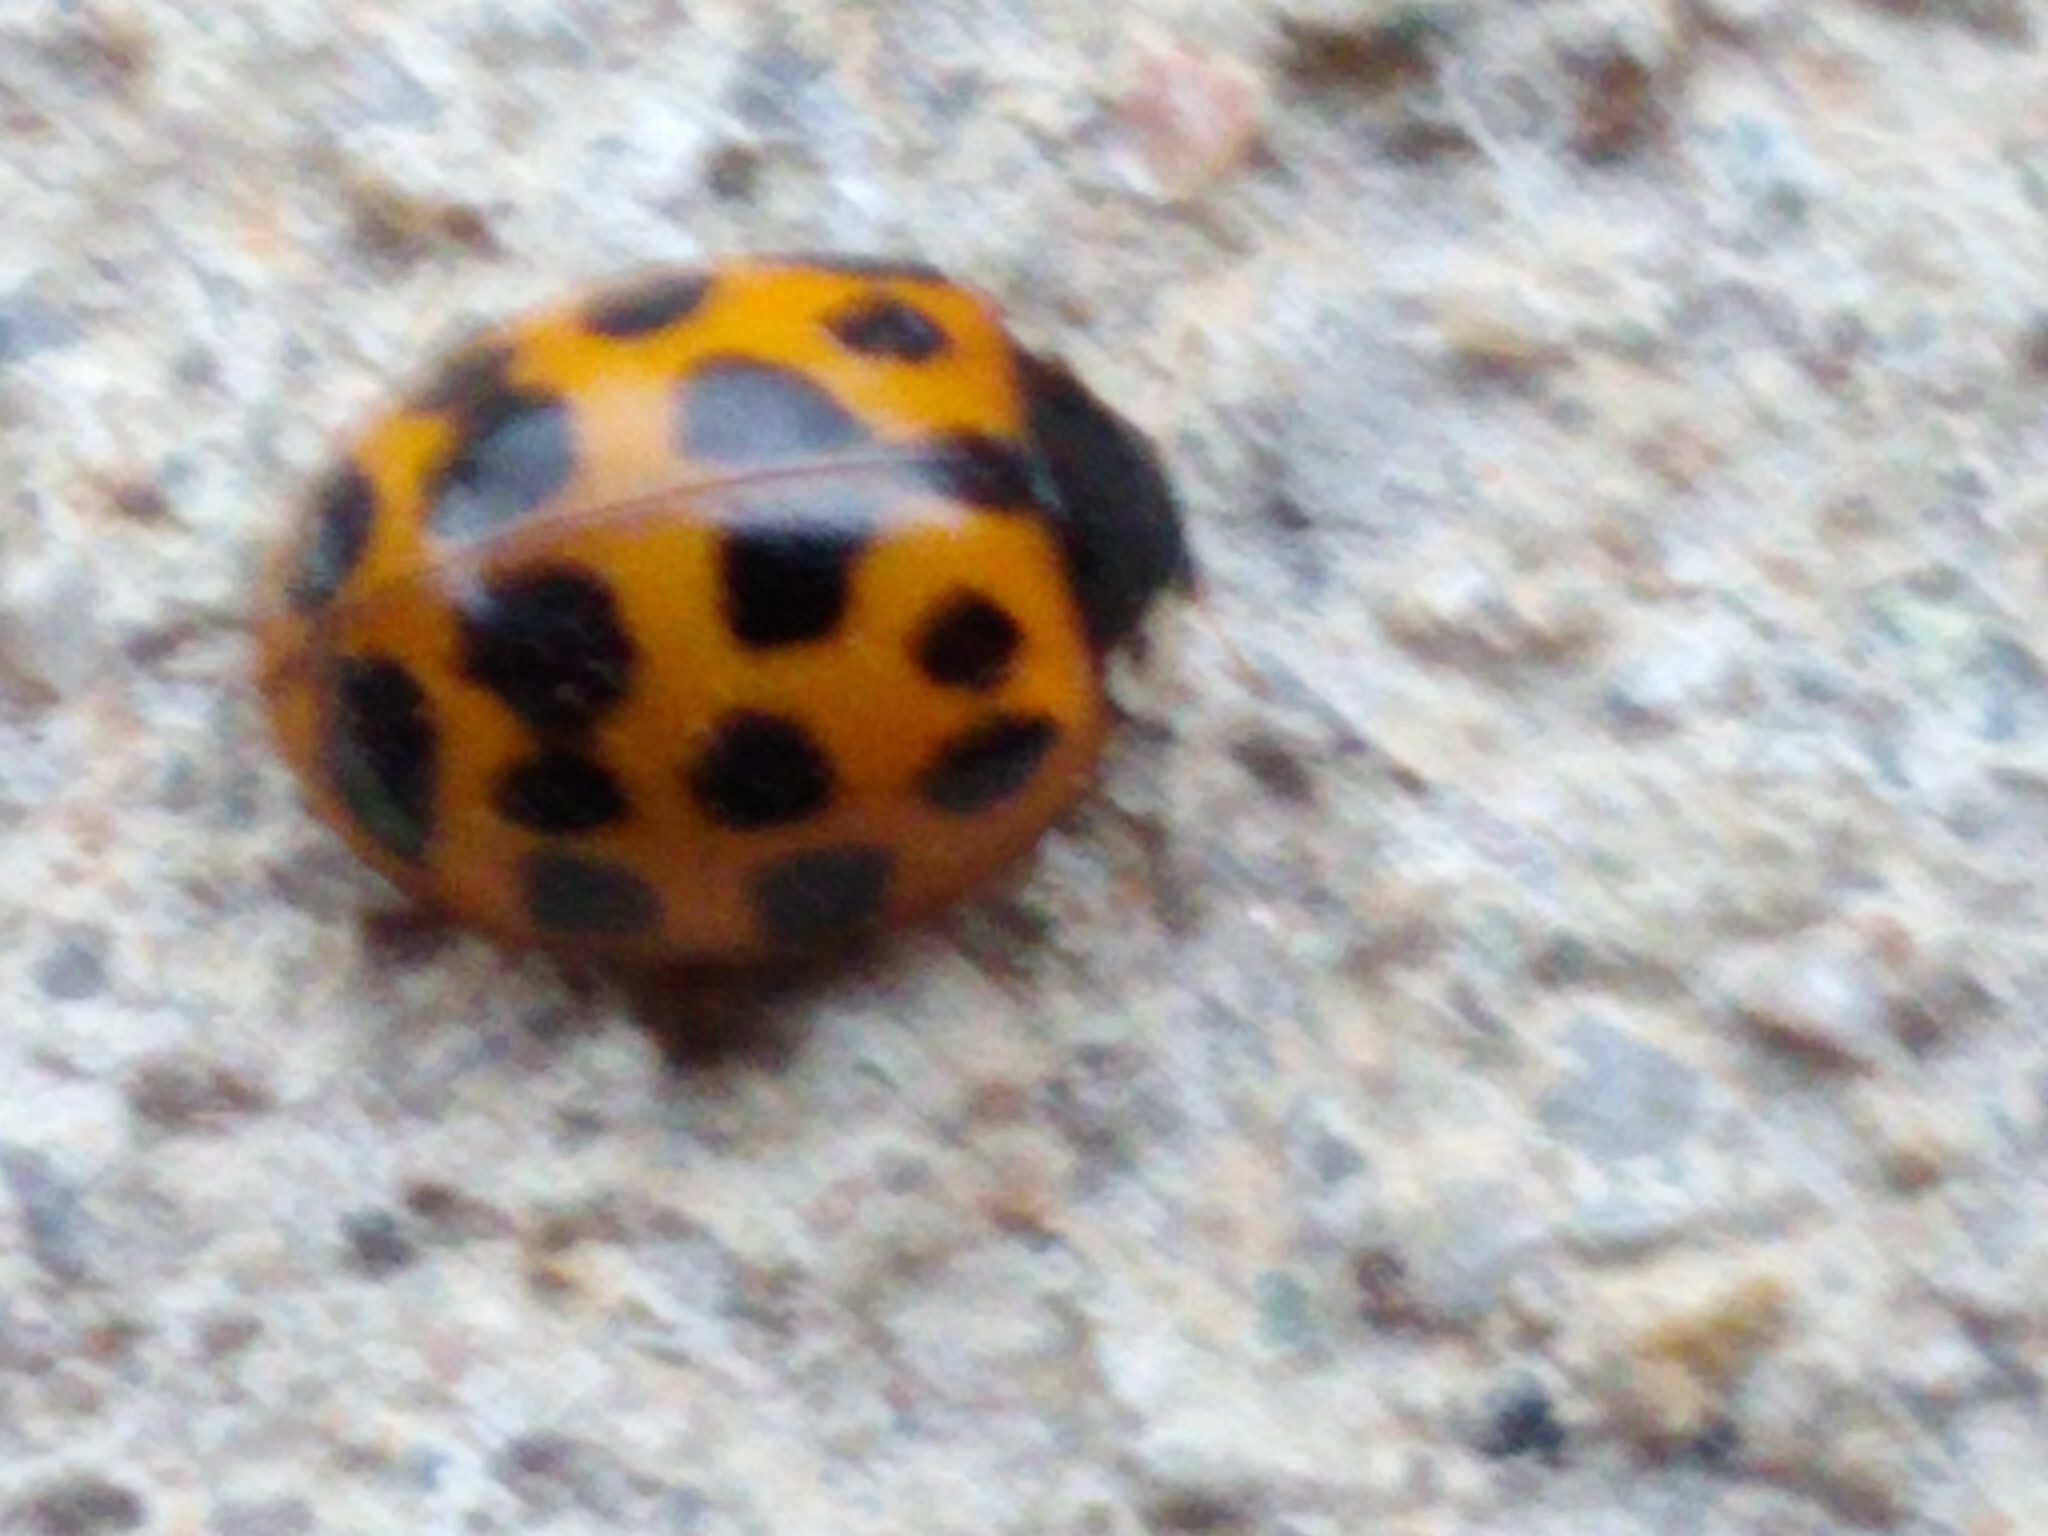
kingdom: Animalia
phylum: Arthropoda
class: Insecta
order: Coleoptera
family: Coccinellidae
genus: Harmonia
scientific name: Harmonia axyridis
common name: Harlequin ladybird
